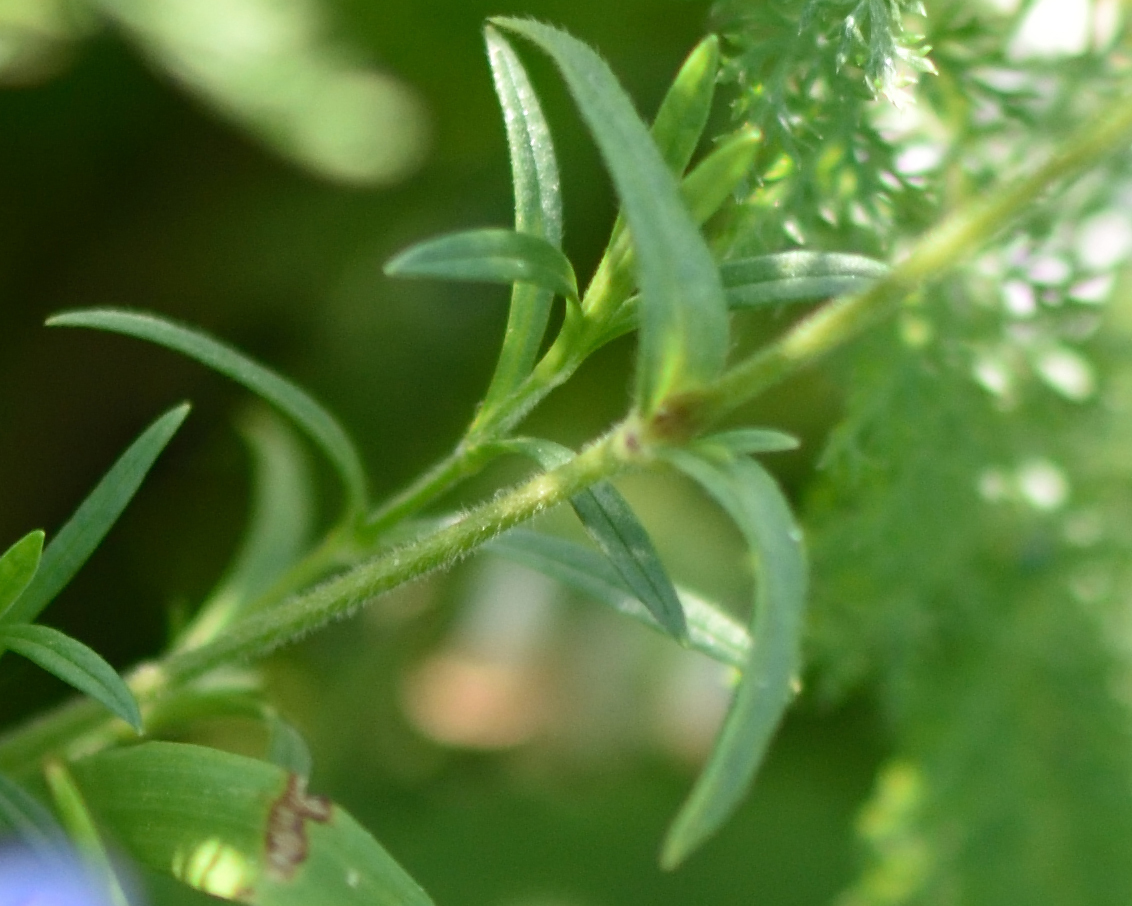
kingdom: Plantae
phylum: Tracheophyta
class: Magnoliopsida
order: Caryophyllales
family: Caryophyllaceae
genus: Cerastium
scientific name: Cerastium arvense
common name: Field mouse-ear
